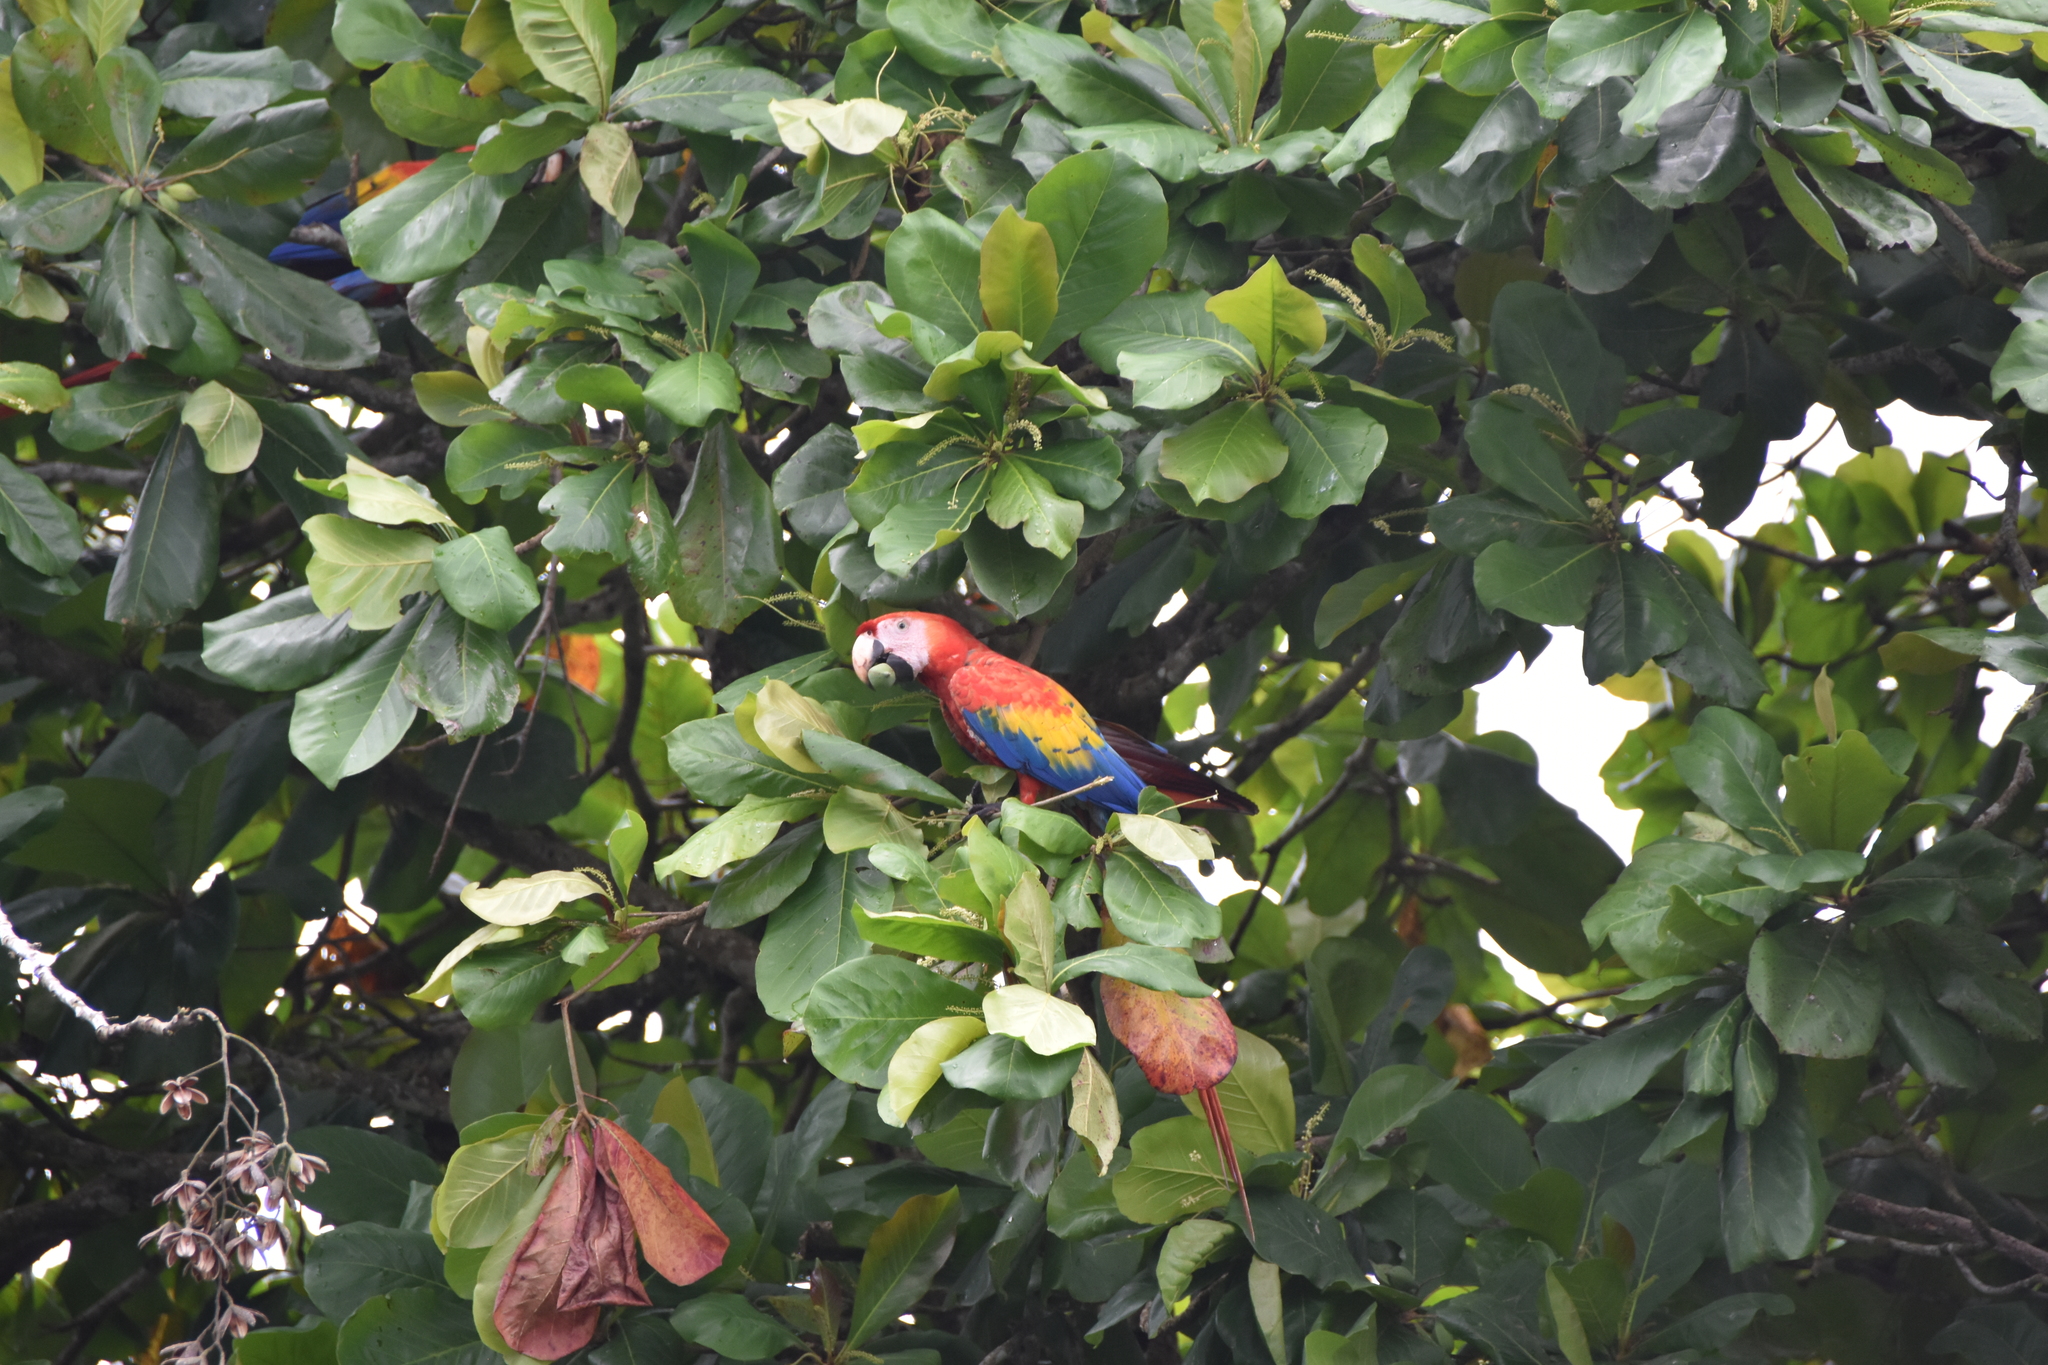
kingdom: Animalia
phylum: Chordata
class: Aves
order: Psittaciformes
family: Psittacidae
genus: Ara
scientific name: Ara macao
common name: Scarlet macaw
